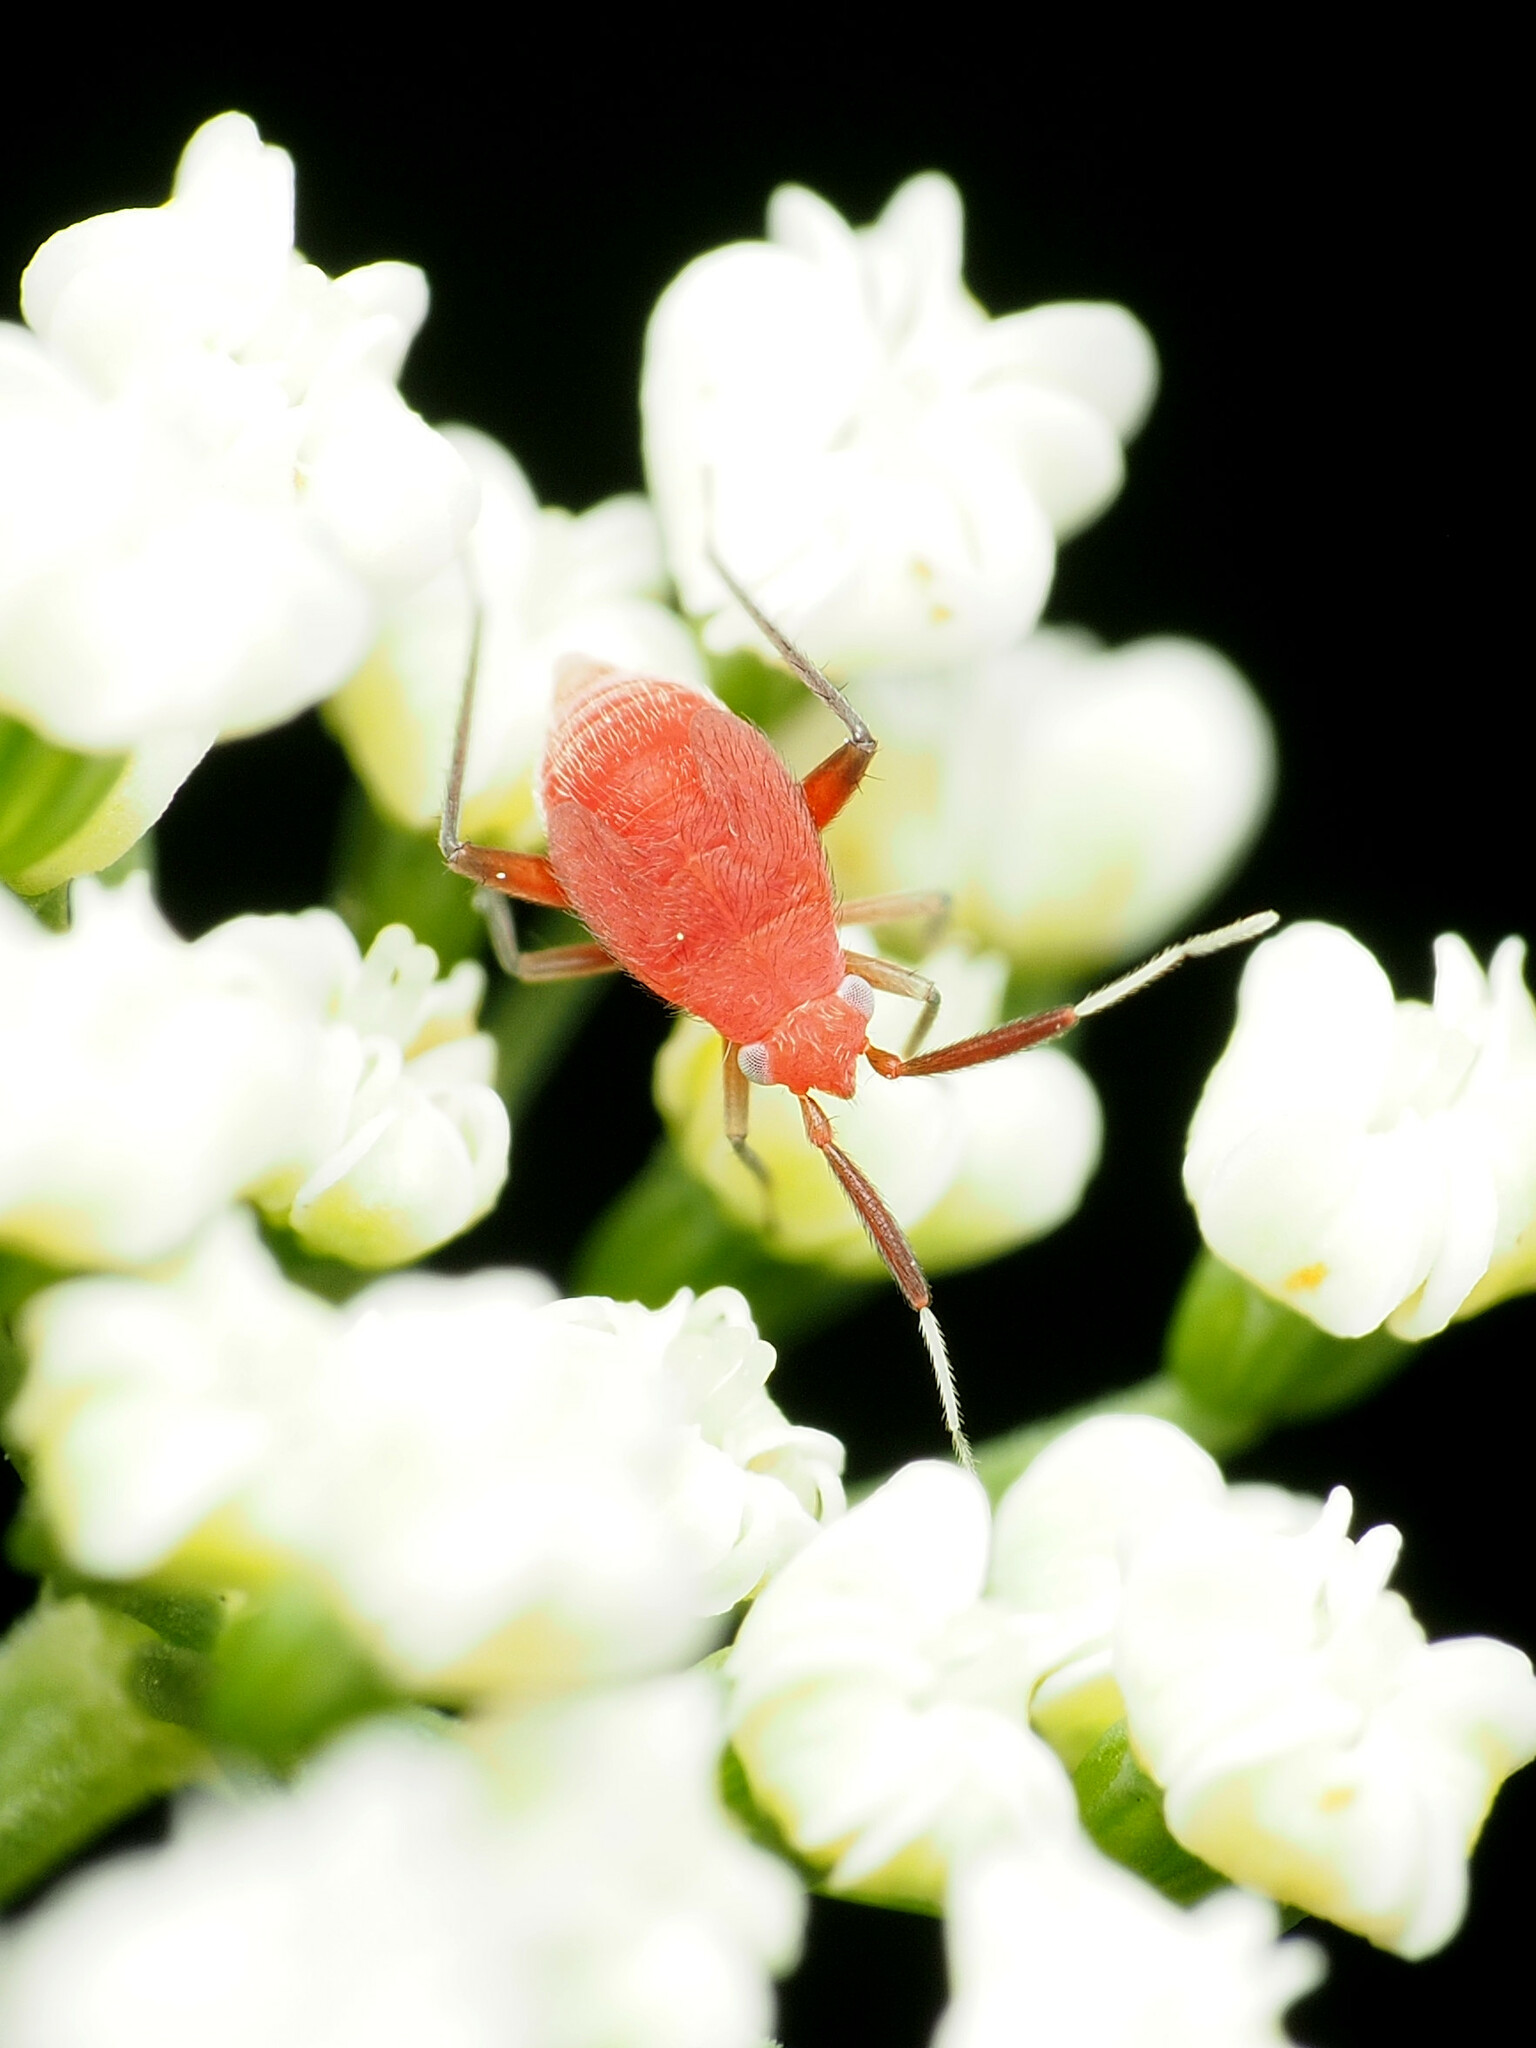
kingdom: Animalia
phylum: Arthropoda
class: Insecta
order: Hemiptera
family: Miridae
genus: Coccobaphes
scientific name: Coccobaphes frontifer
